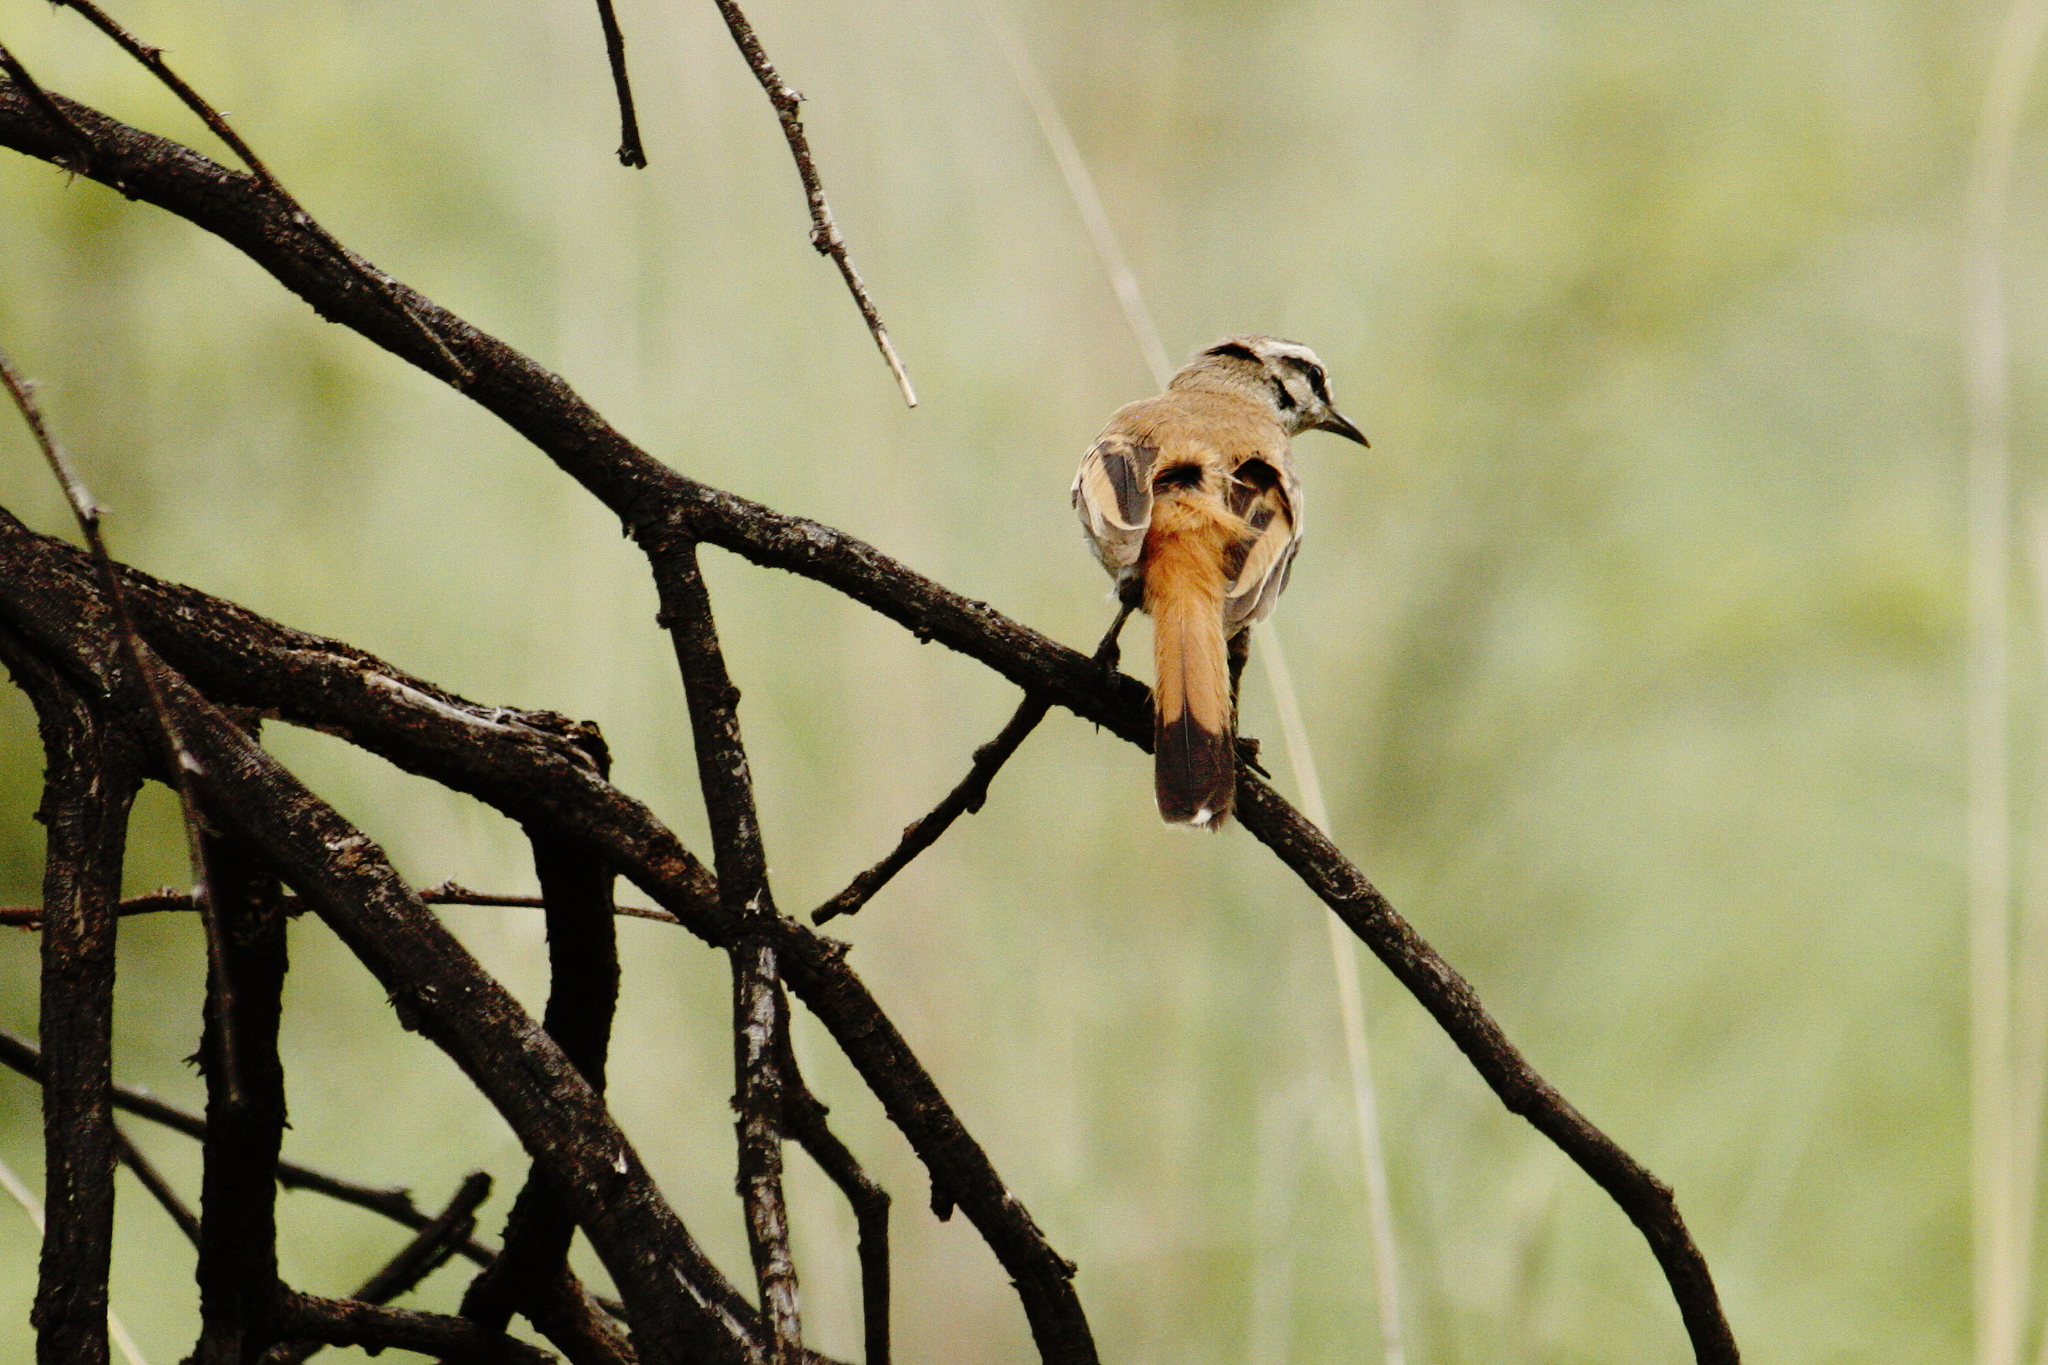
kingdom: Animalia
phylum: Chordata
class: Aves
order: Passeriformes
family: Muscicapidae
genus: Erythropygia
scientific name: Erythropygia paena
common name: Kalahari scrub robin
